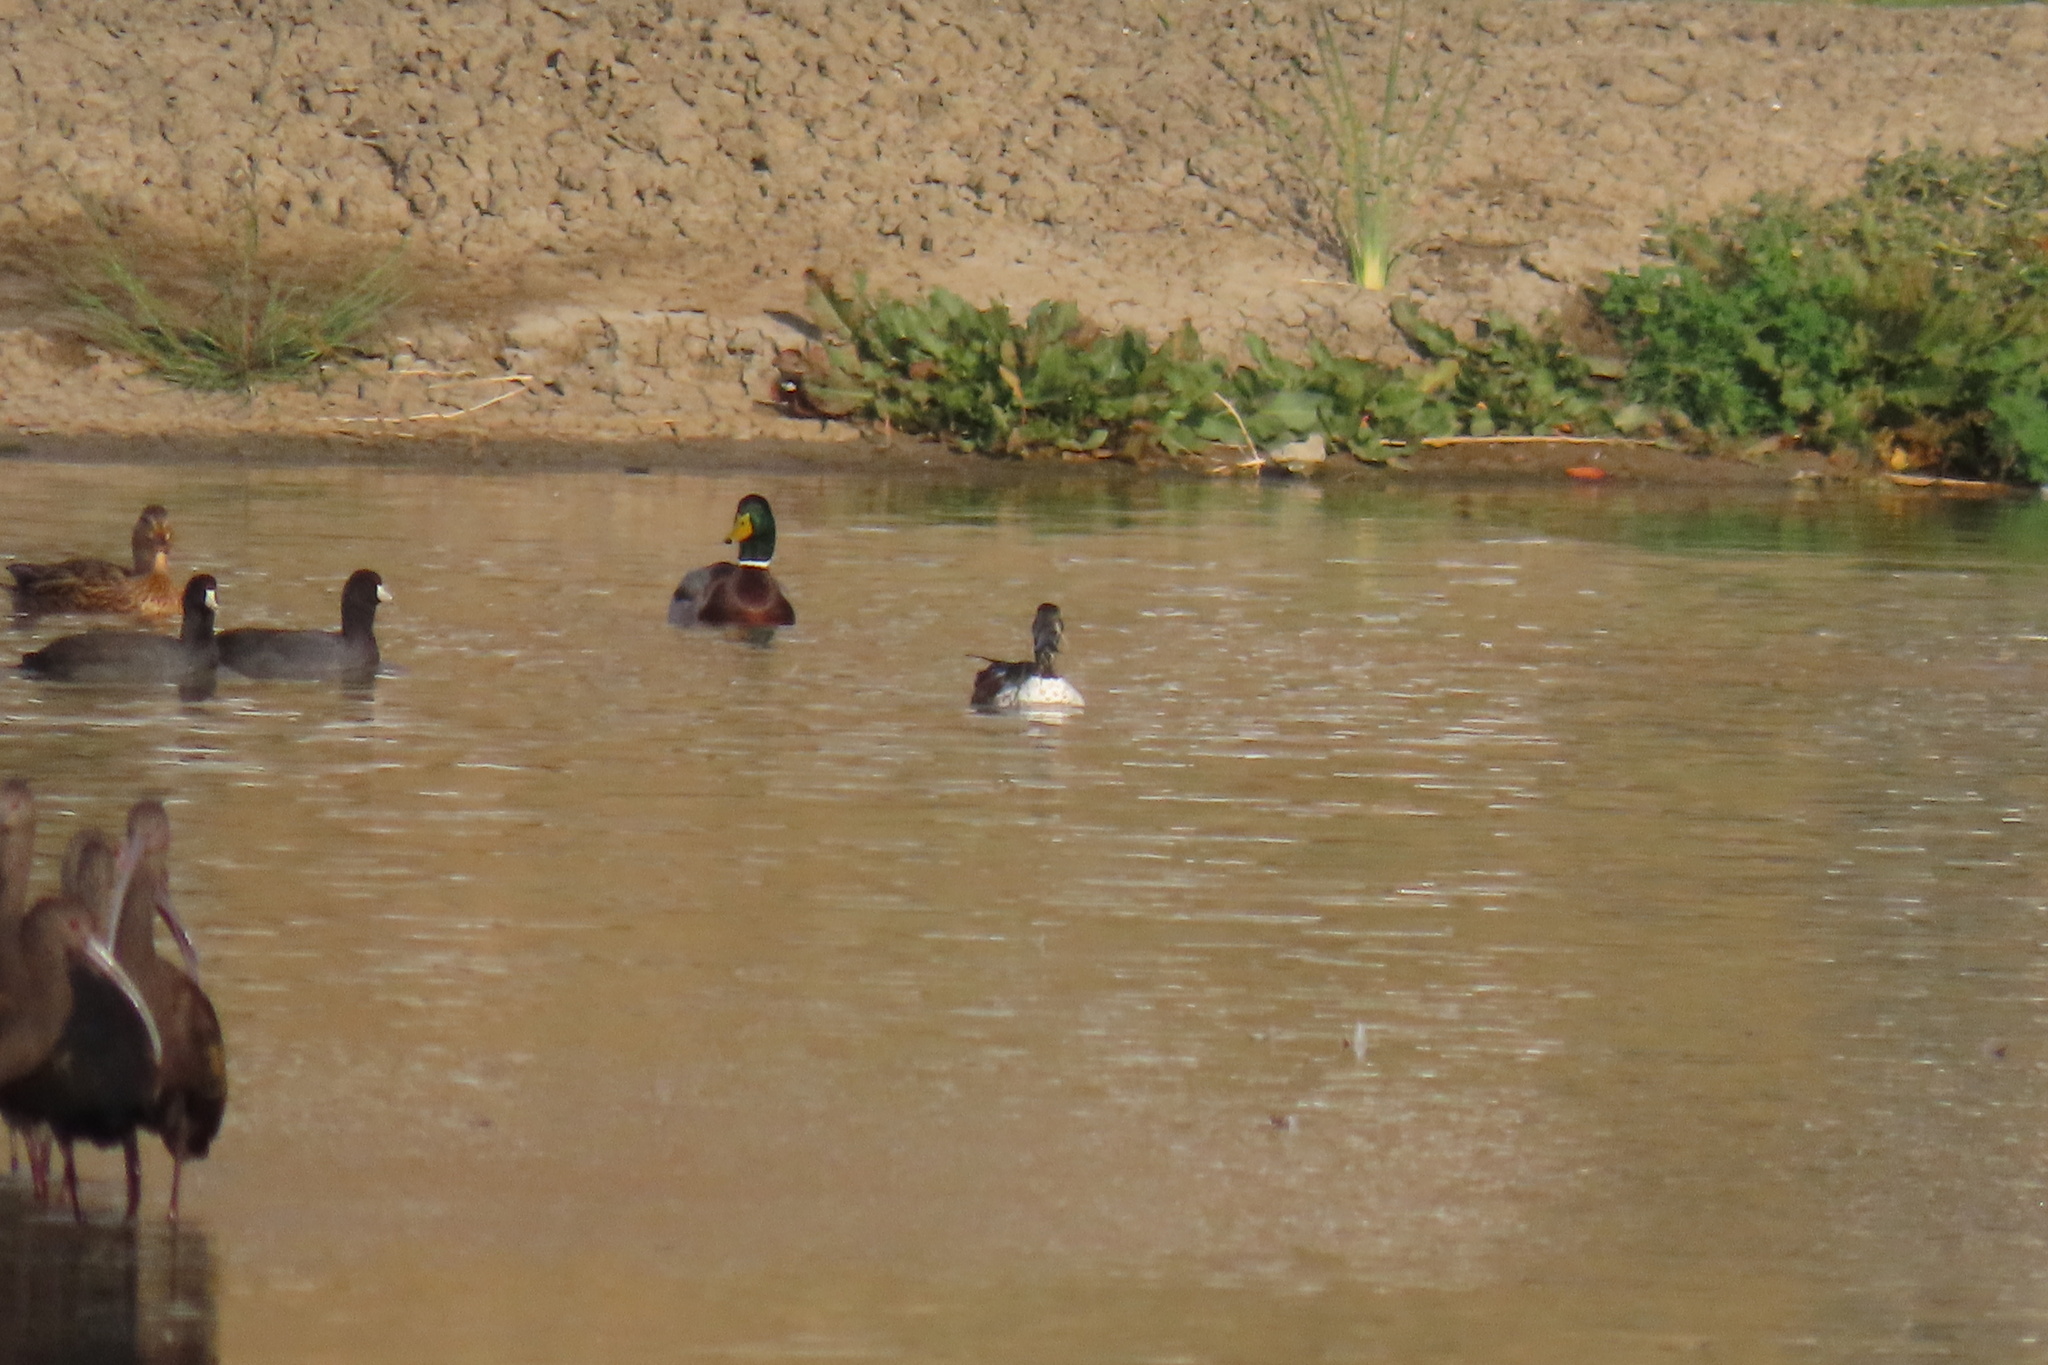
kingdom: Animalia
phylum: Chordata
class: Aves
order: Anseriformes
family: Anatidae
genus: Spatula
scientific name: Spatula clypeata
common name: Northern shoveler
